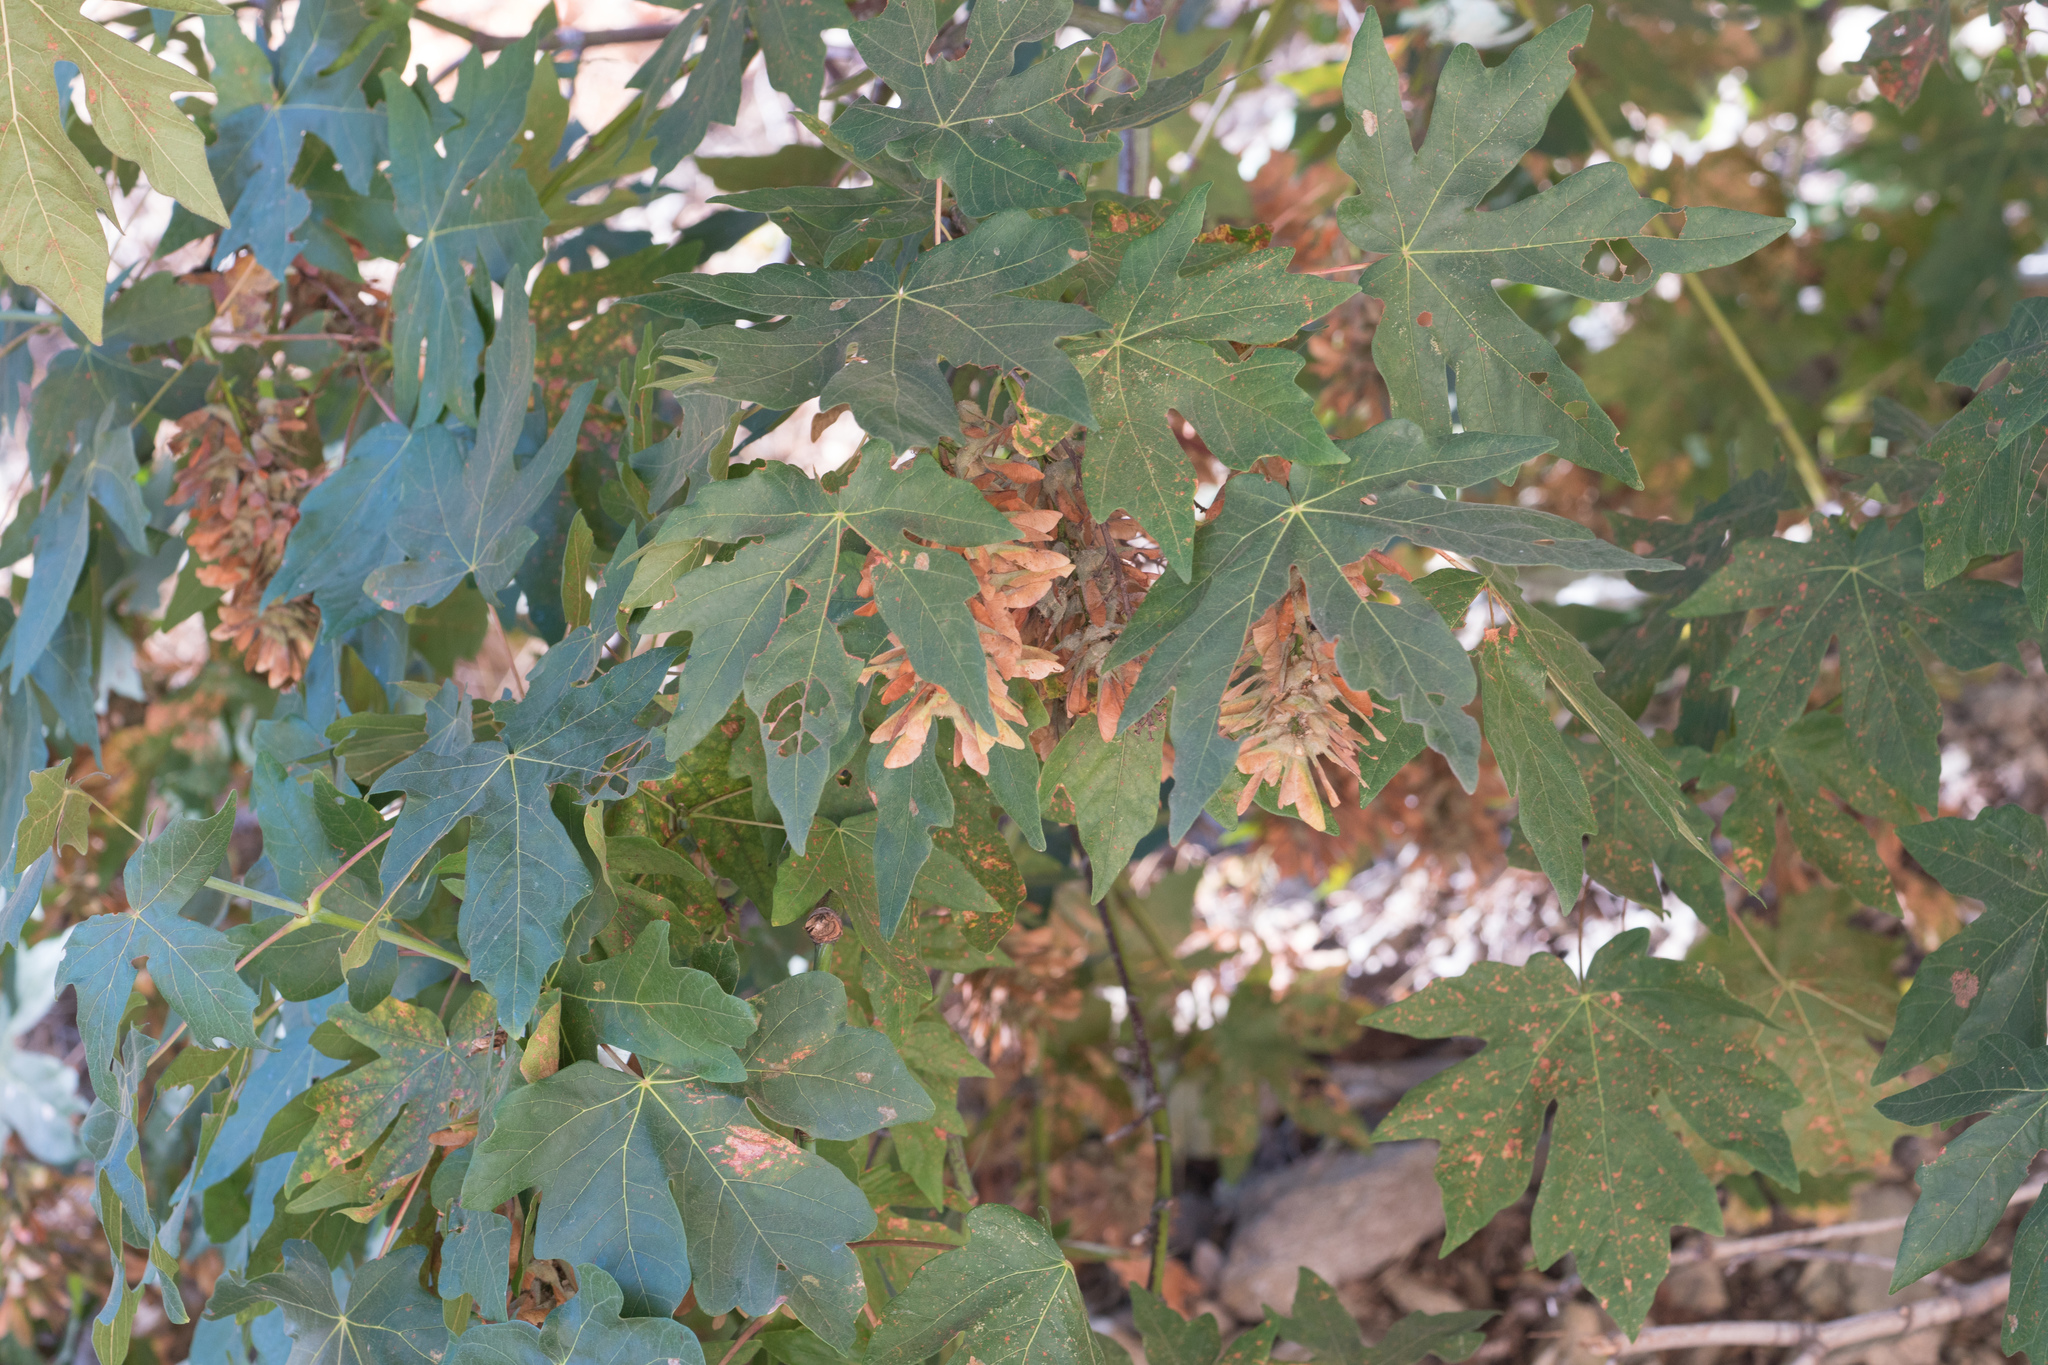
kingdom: Plantae
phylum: Tracheophyta
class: Magnoliopsida
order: Sapindales
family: Sapindaceae
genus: Acer
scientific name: Acer macrophyllum
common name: Oregon maple
